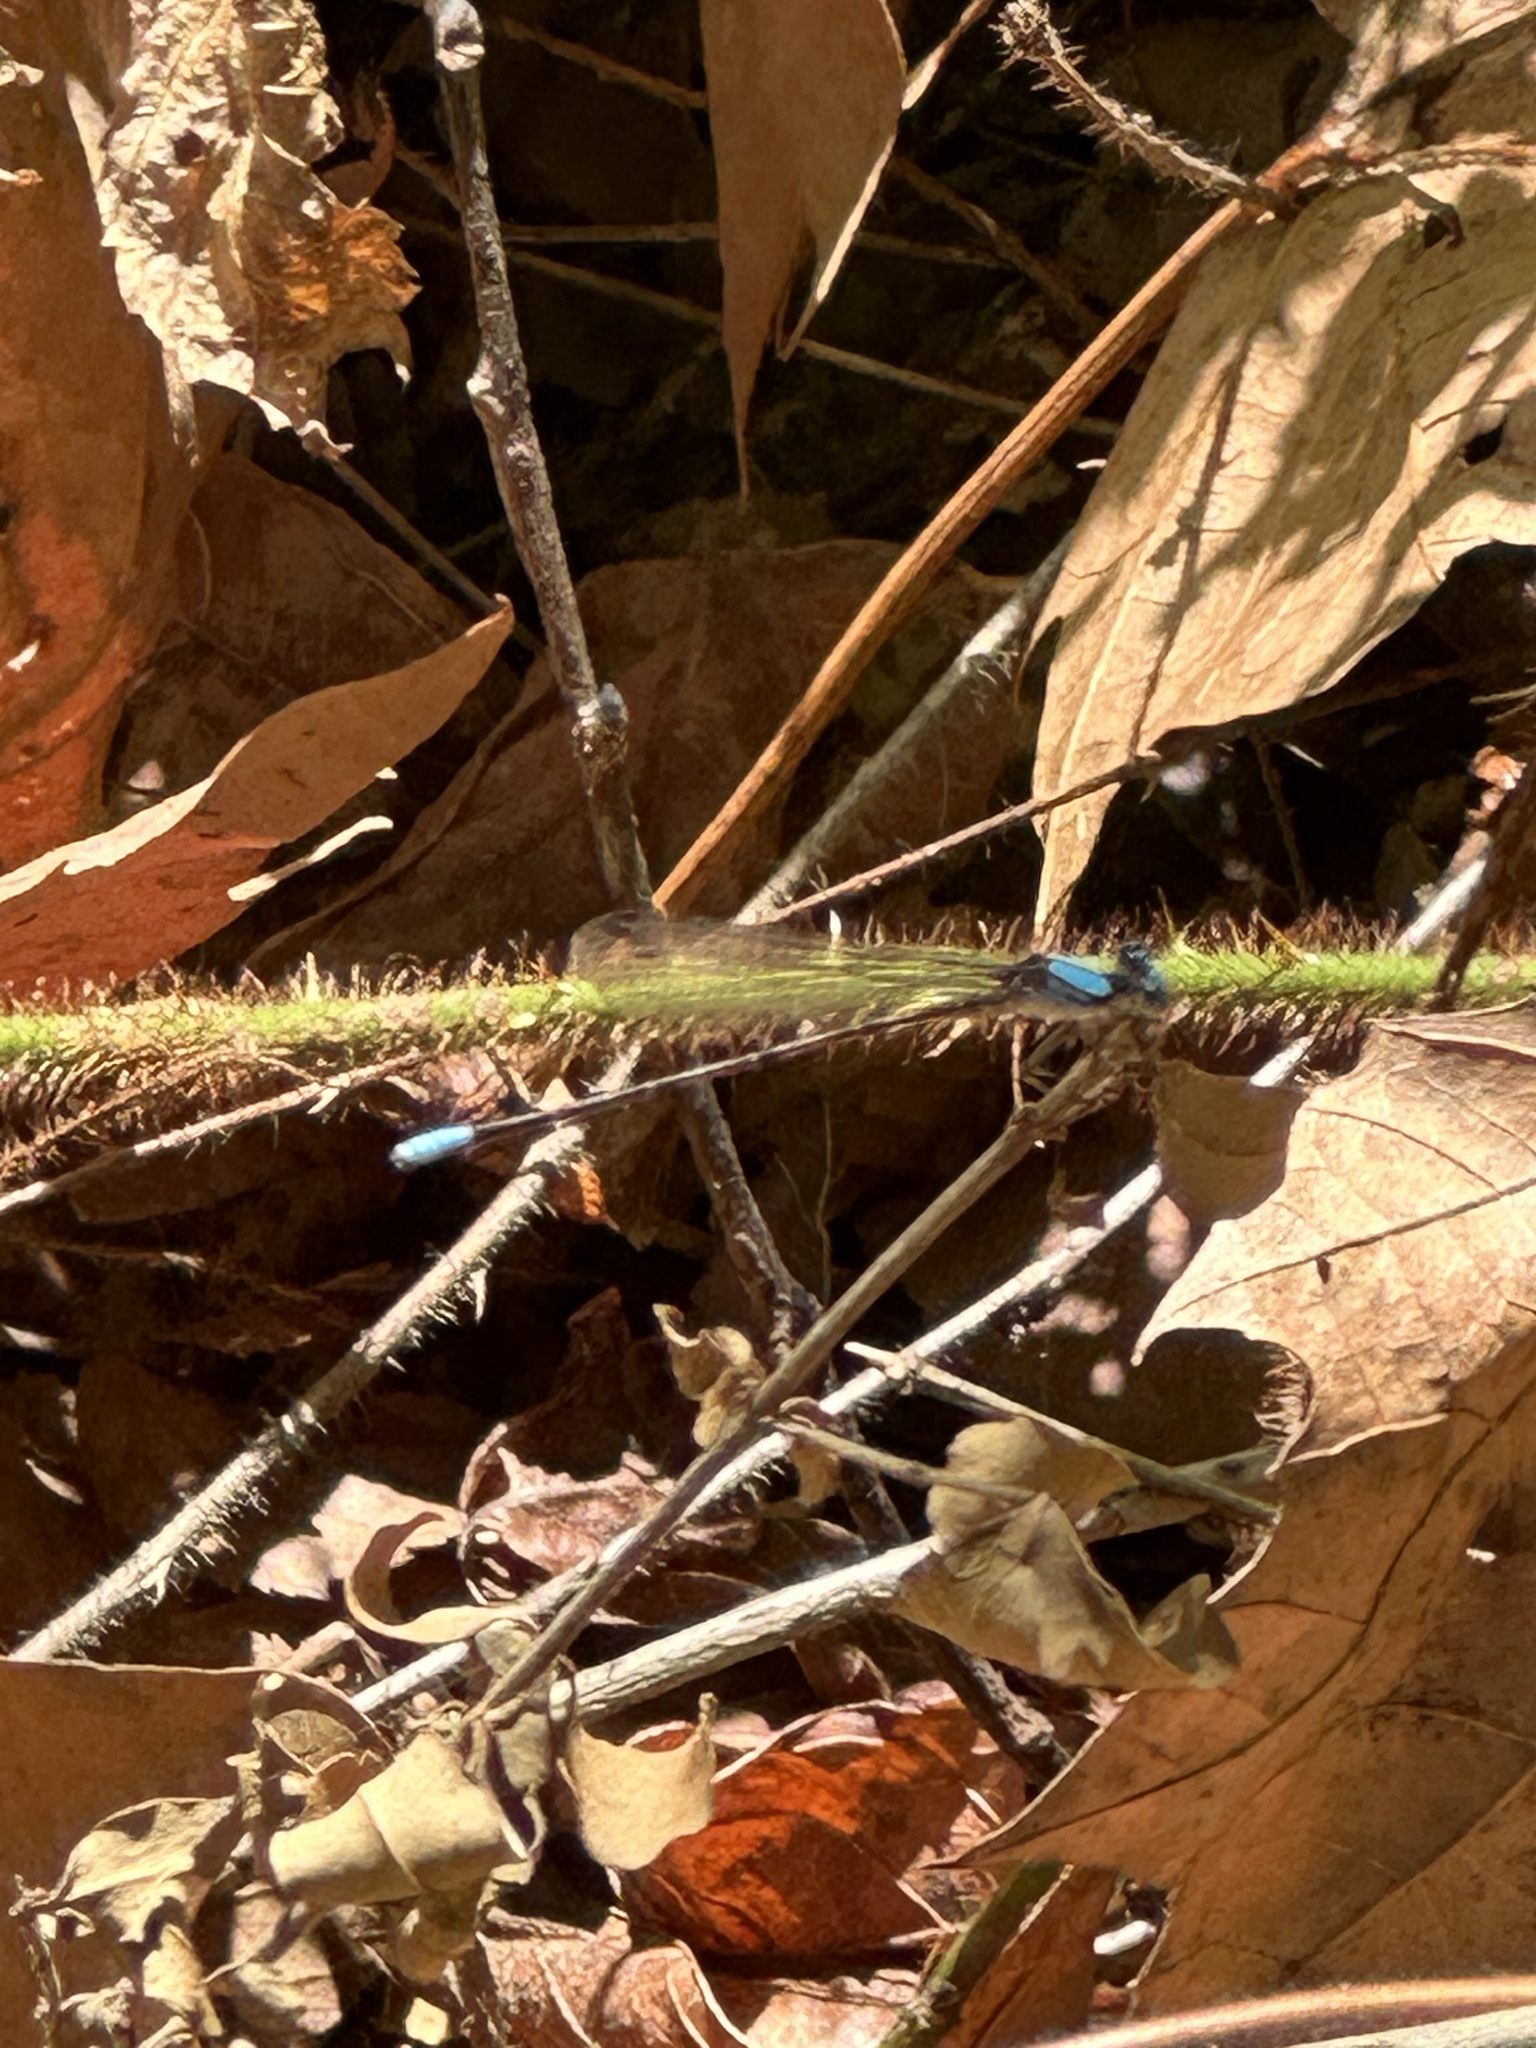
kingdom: Animalia
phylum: Arthropoda
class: Insecta
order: Odonata
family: Coenagrionidae
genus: Argia
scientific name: Argia apicalis
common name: Blue-fronted dancer
